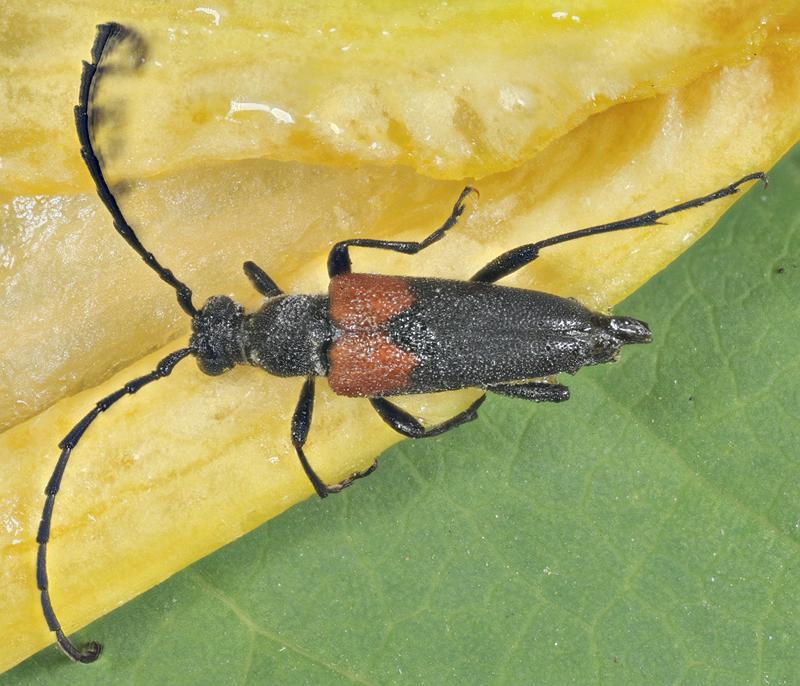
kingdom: Animalia
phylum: Arthropoda
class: Insecta
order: Coleoptera
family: Cerambycidae
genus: Stictoleptura
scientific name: Stictoleptura canadensis
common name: Red-shouldered pine borer
